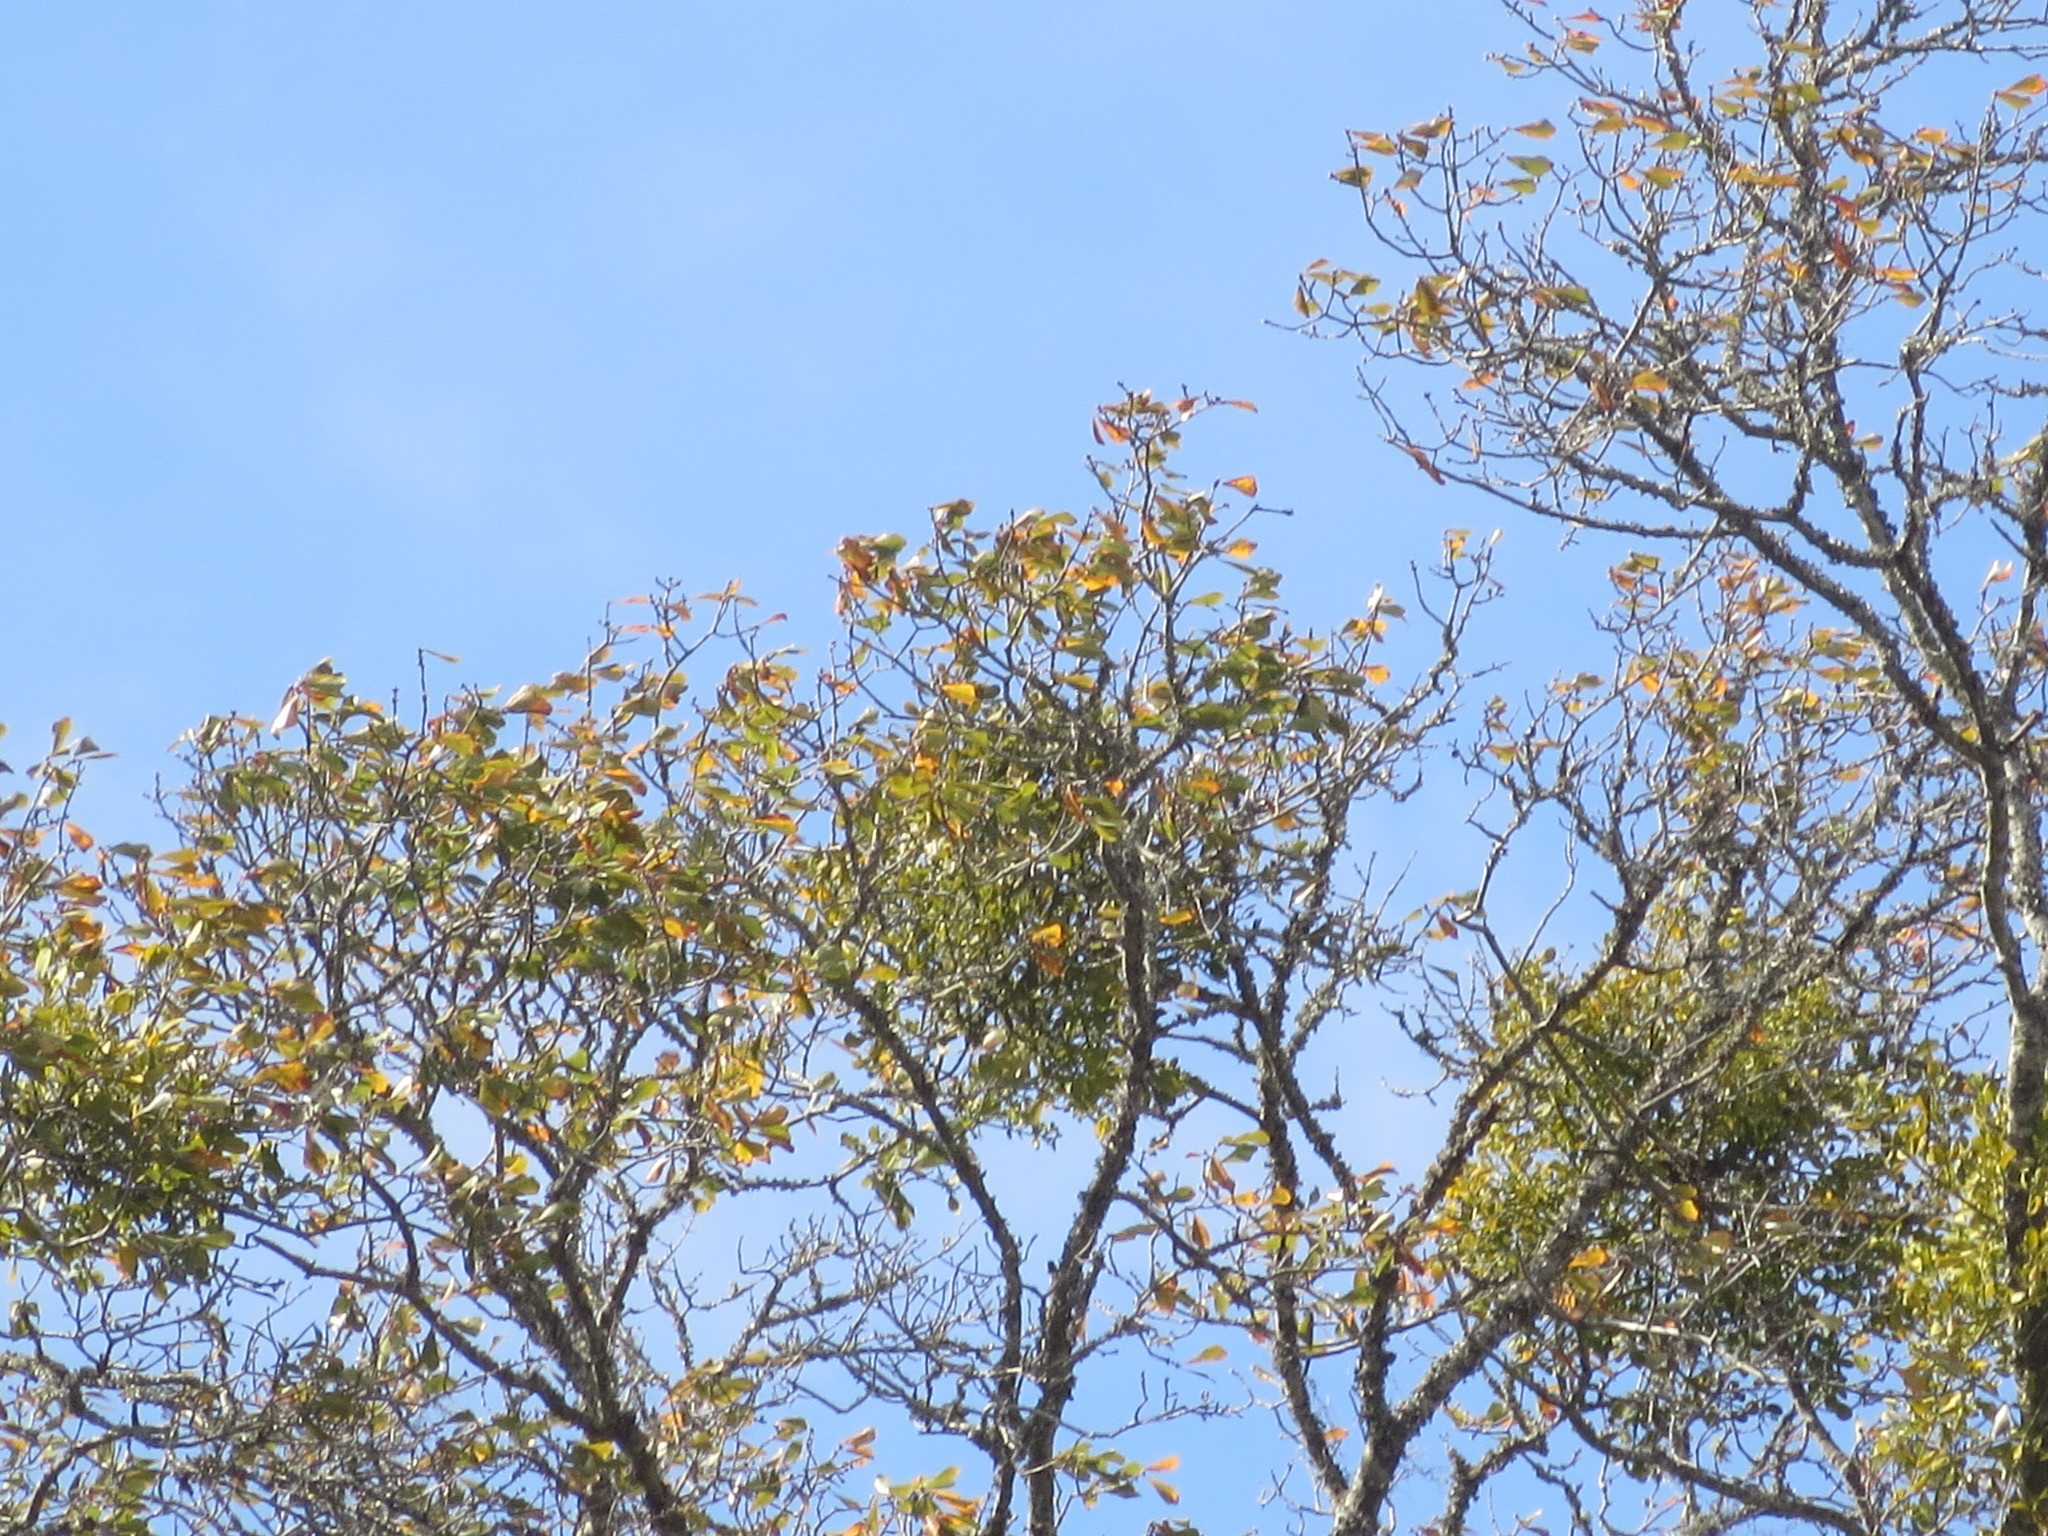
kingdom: Plantae
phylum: Tracheophyta
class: Magnoliopsida
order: Santalales
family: Viscaceae
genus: Phoradendron
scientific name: Phoradendron leucarpum
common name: Pacific mistletoe
